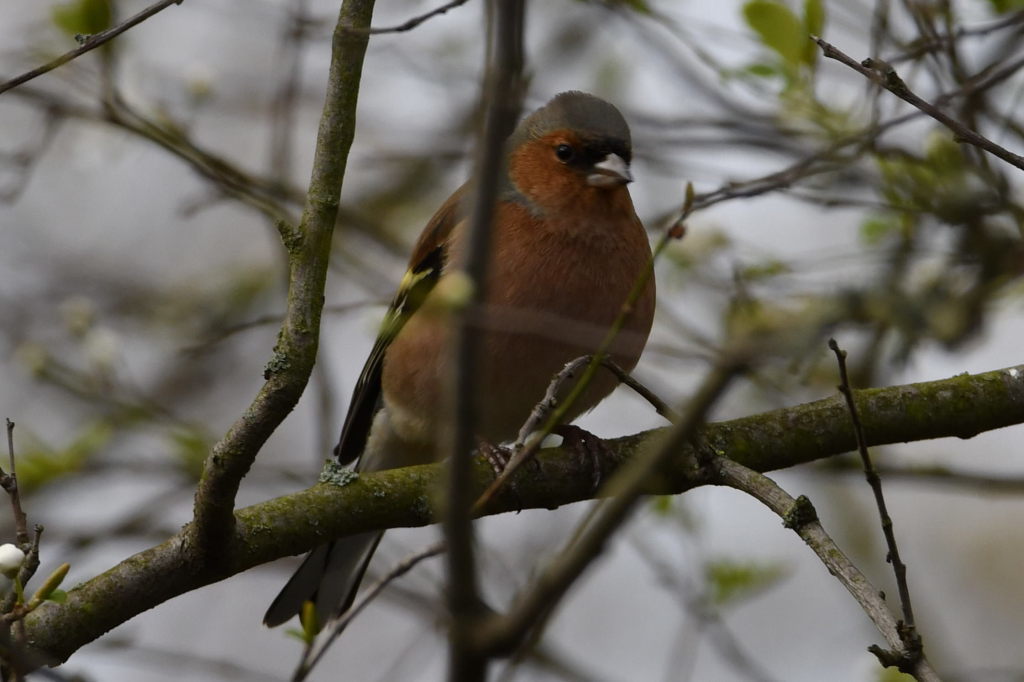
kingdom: Animalia
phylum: Chordata
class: Aves
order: Passeriformes
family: Fringillidae
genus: Fringilla
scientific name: Fringilla coelebs
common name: Common chaffinch
